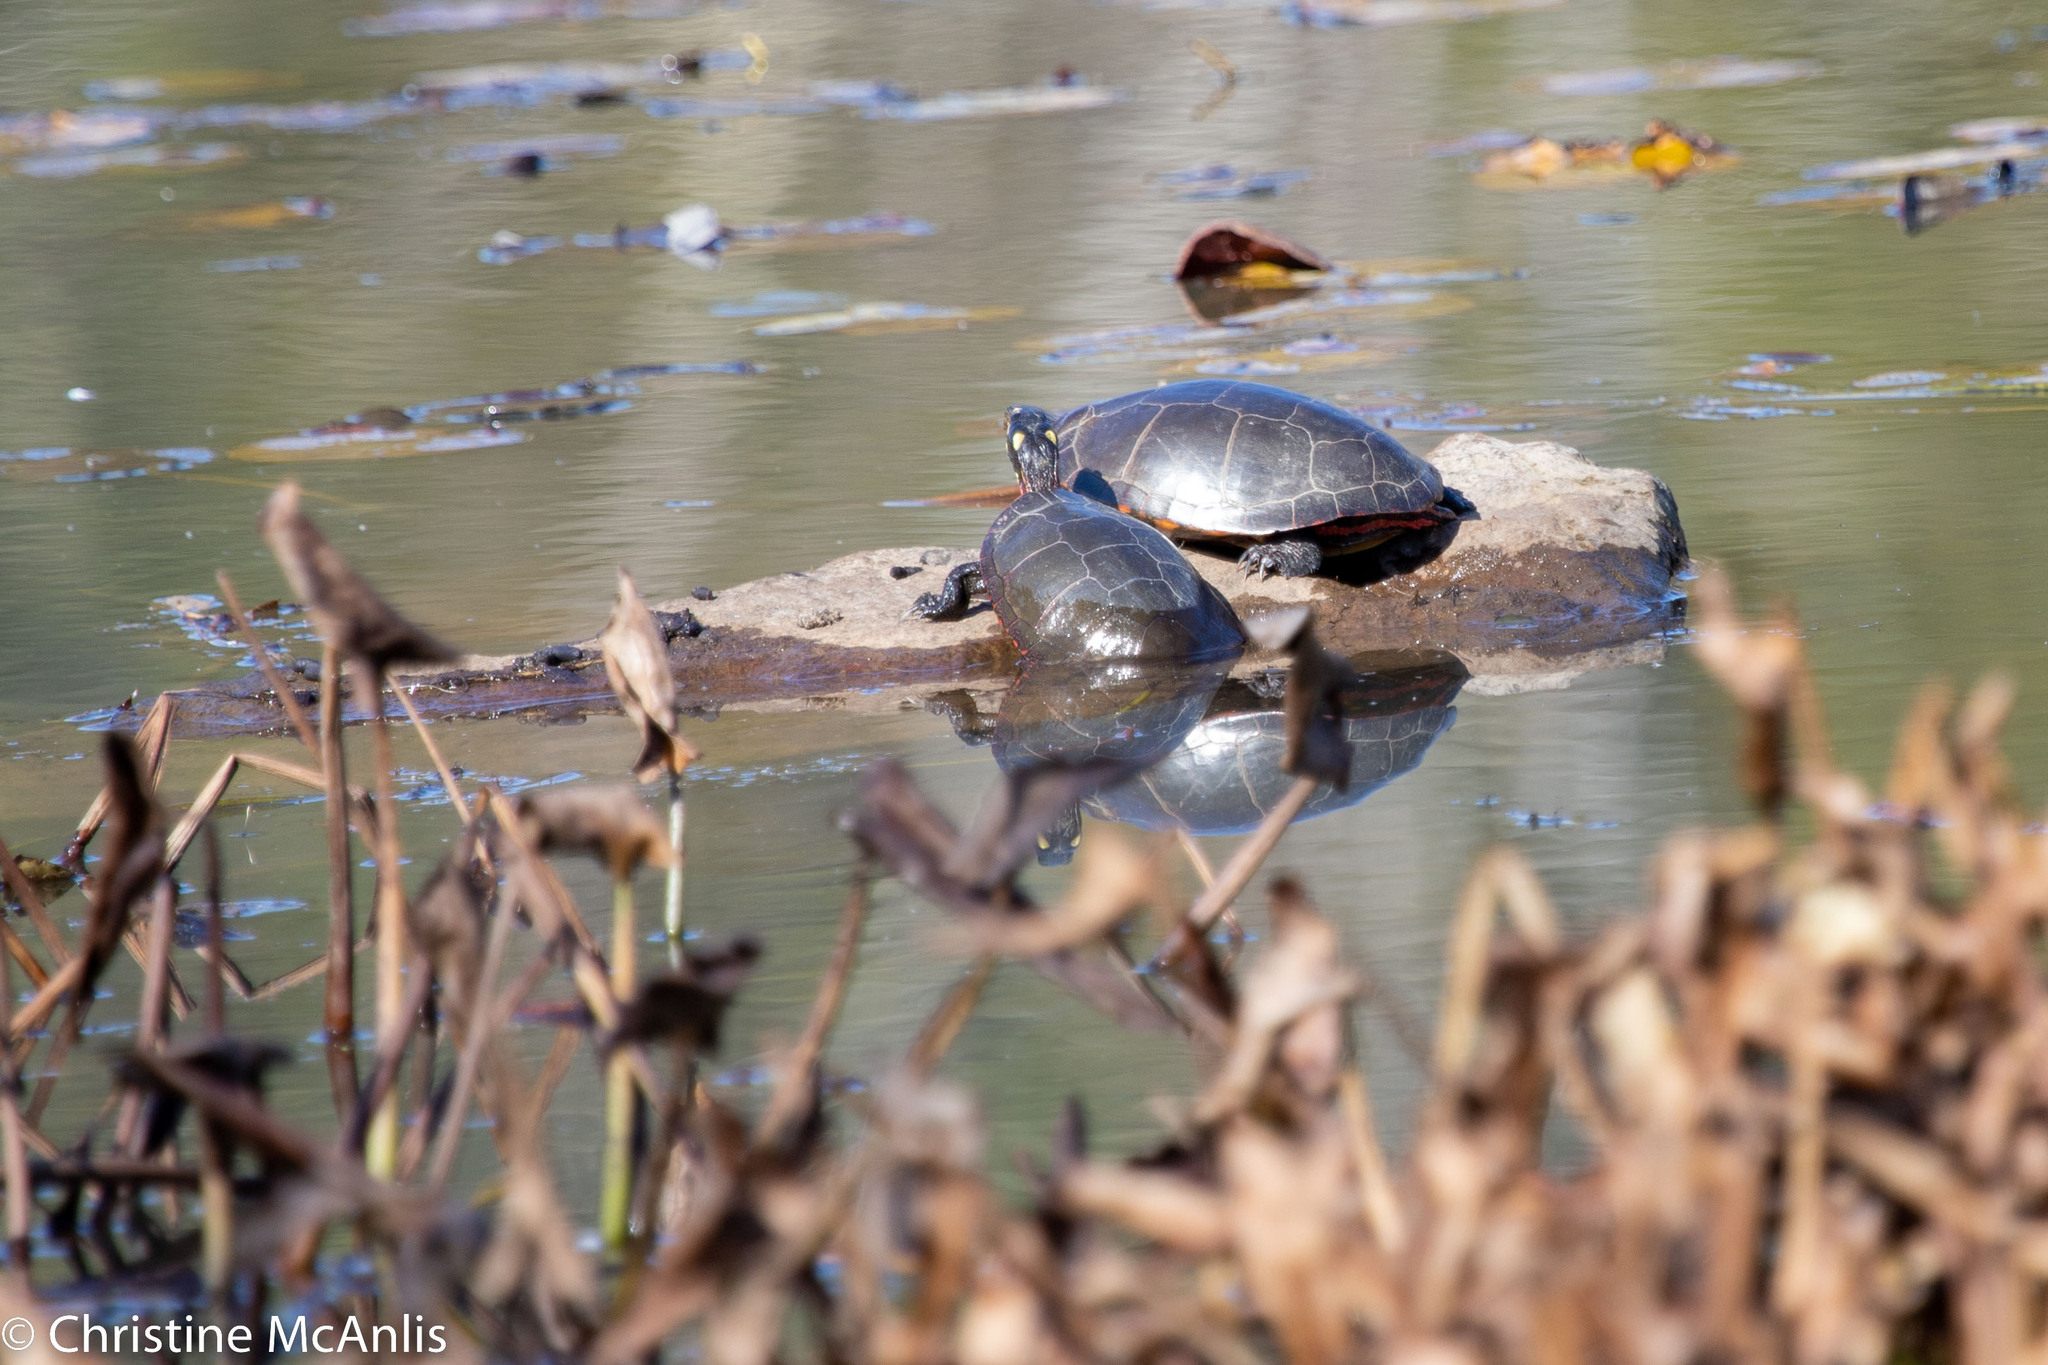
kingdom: Animalia
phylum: Chordata
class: Testudines
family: Emydidae
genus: Chrysemys
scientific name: Chrysemys picta
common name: Painted turtle
